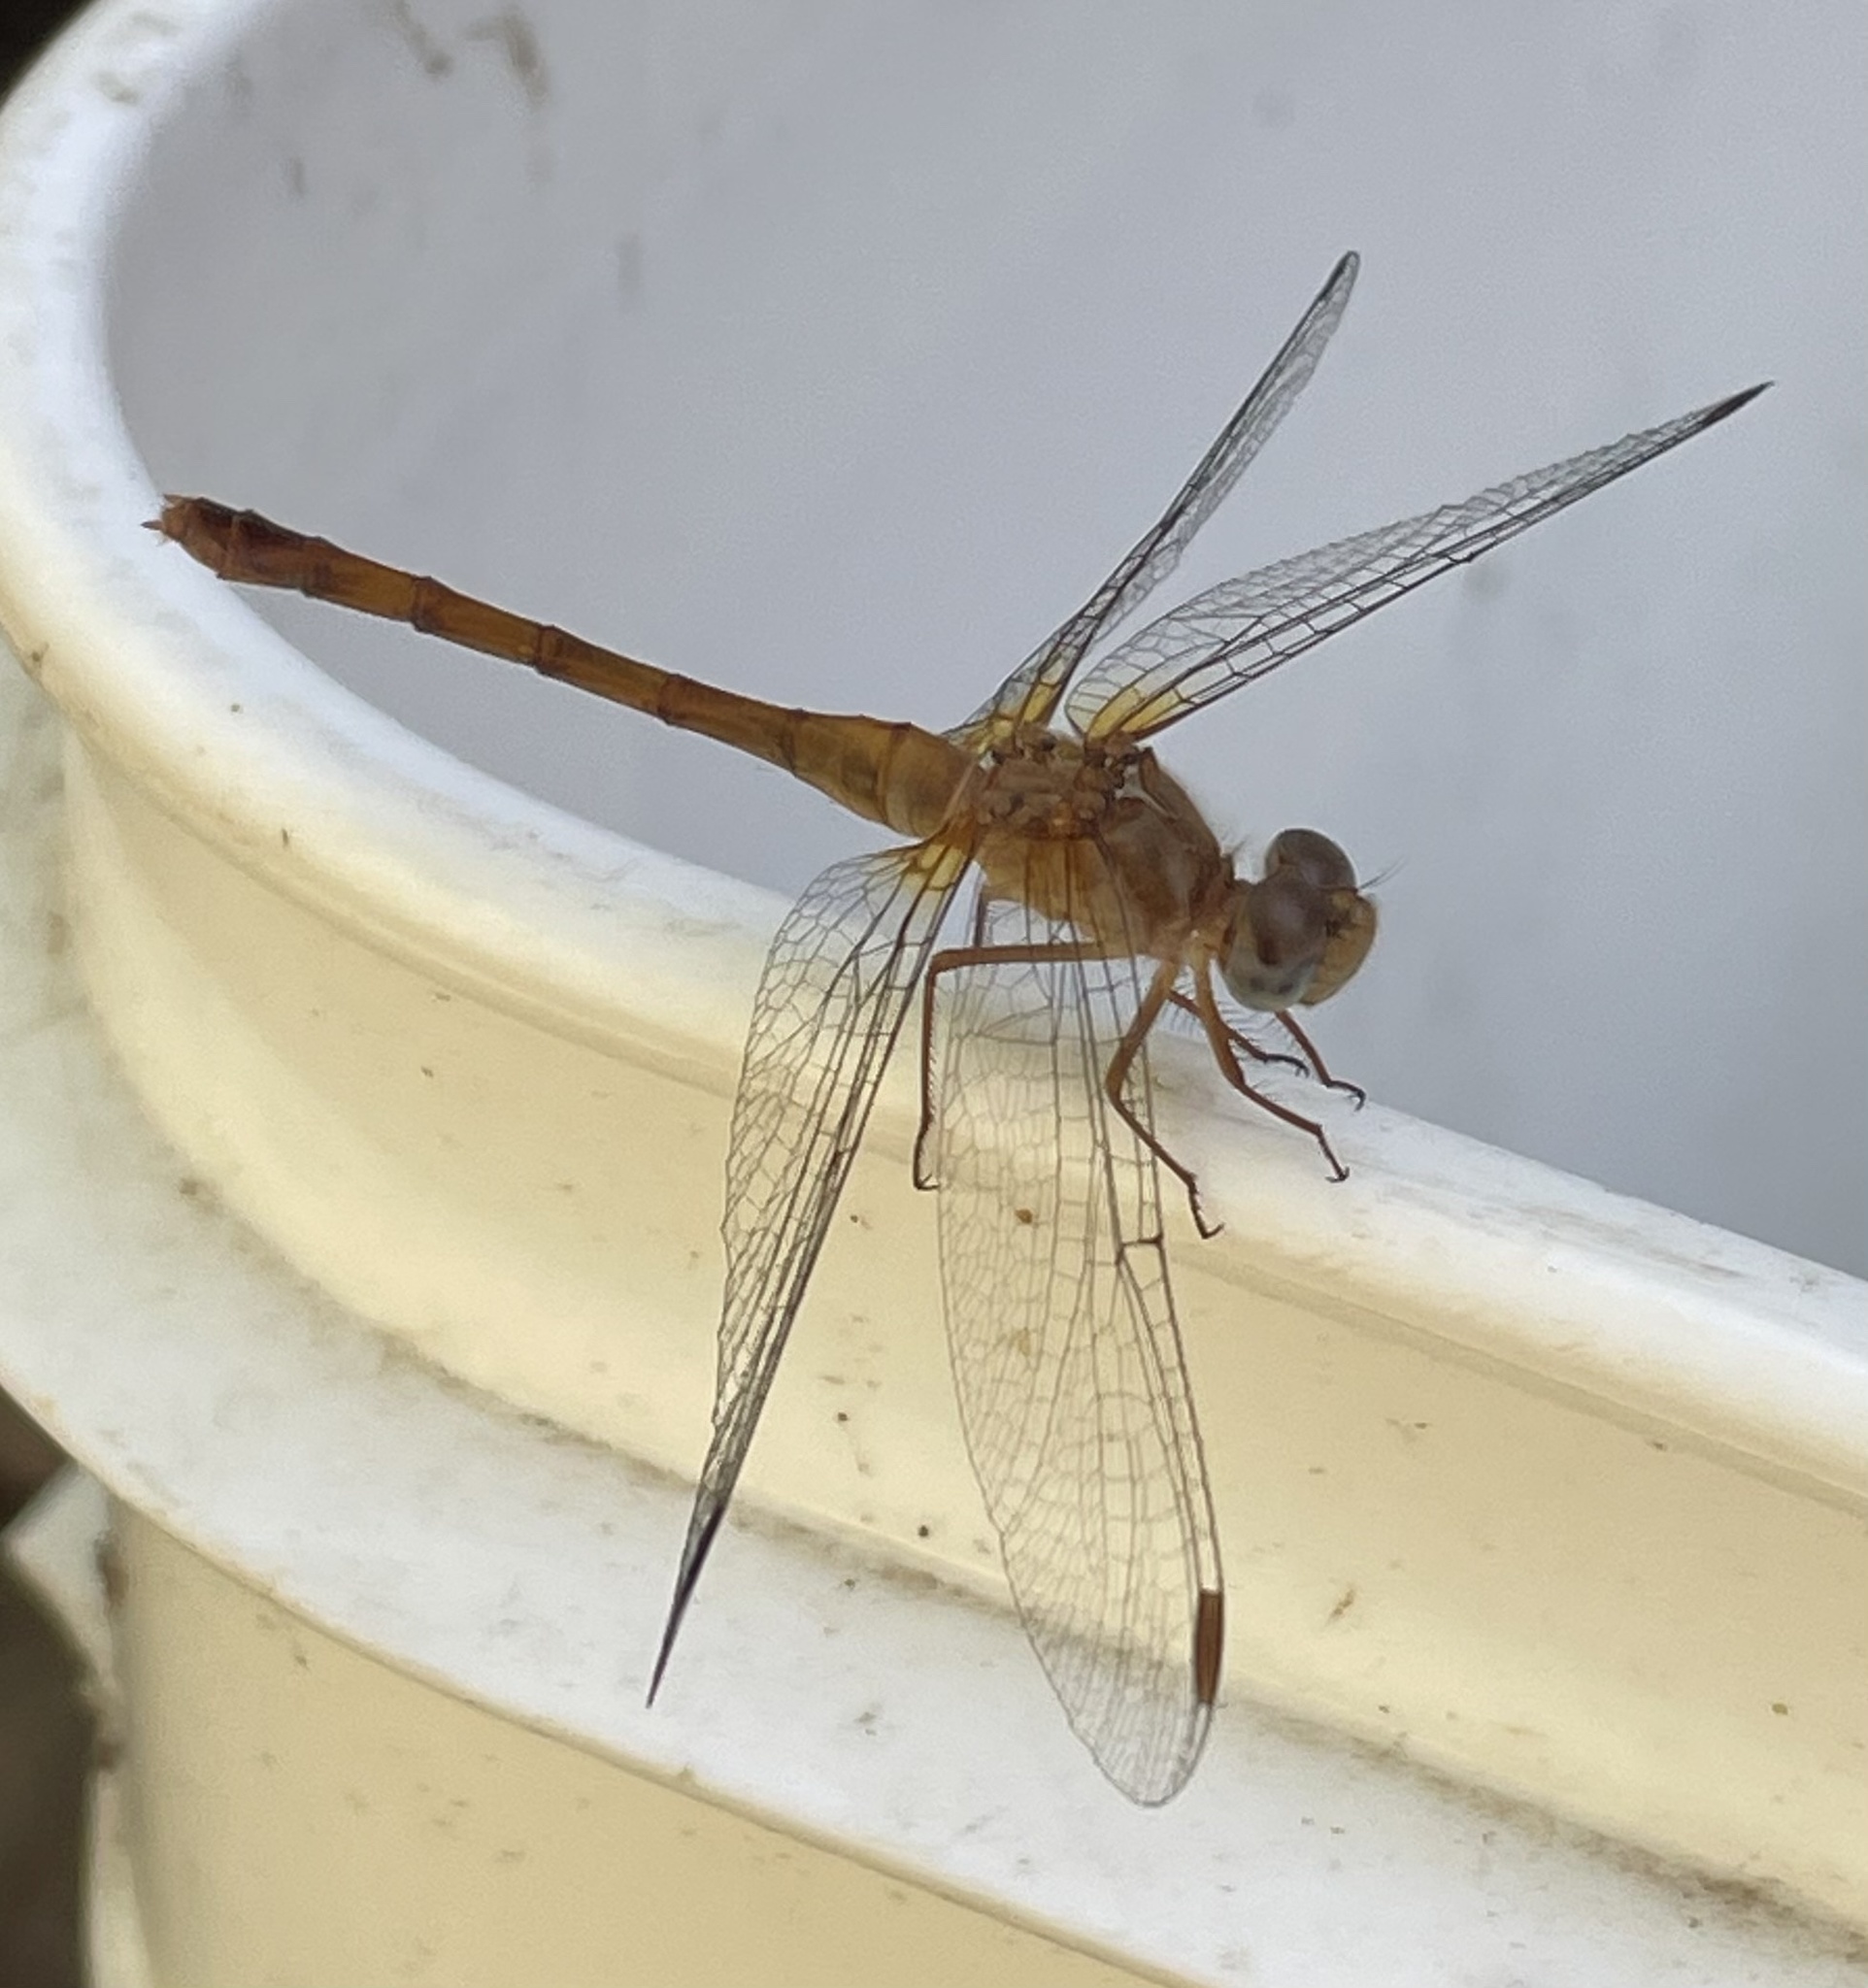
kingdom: Animalia
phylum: Arthropoda
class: Insecta
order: Odonata
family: Libellulidae
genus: Sympetrum
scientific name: Sympetrum vicinum
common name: Autumn meadowhawk
